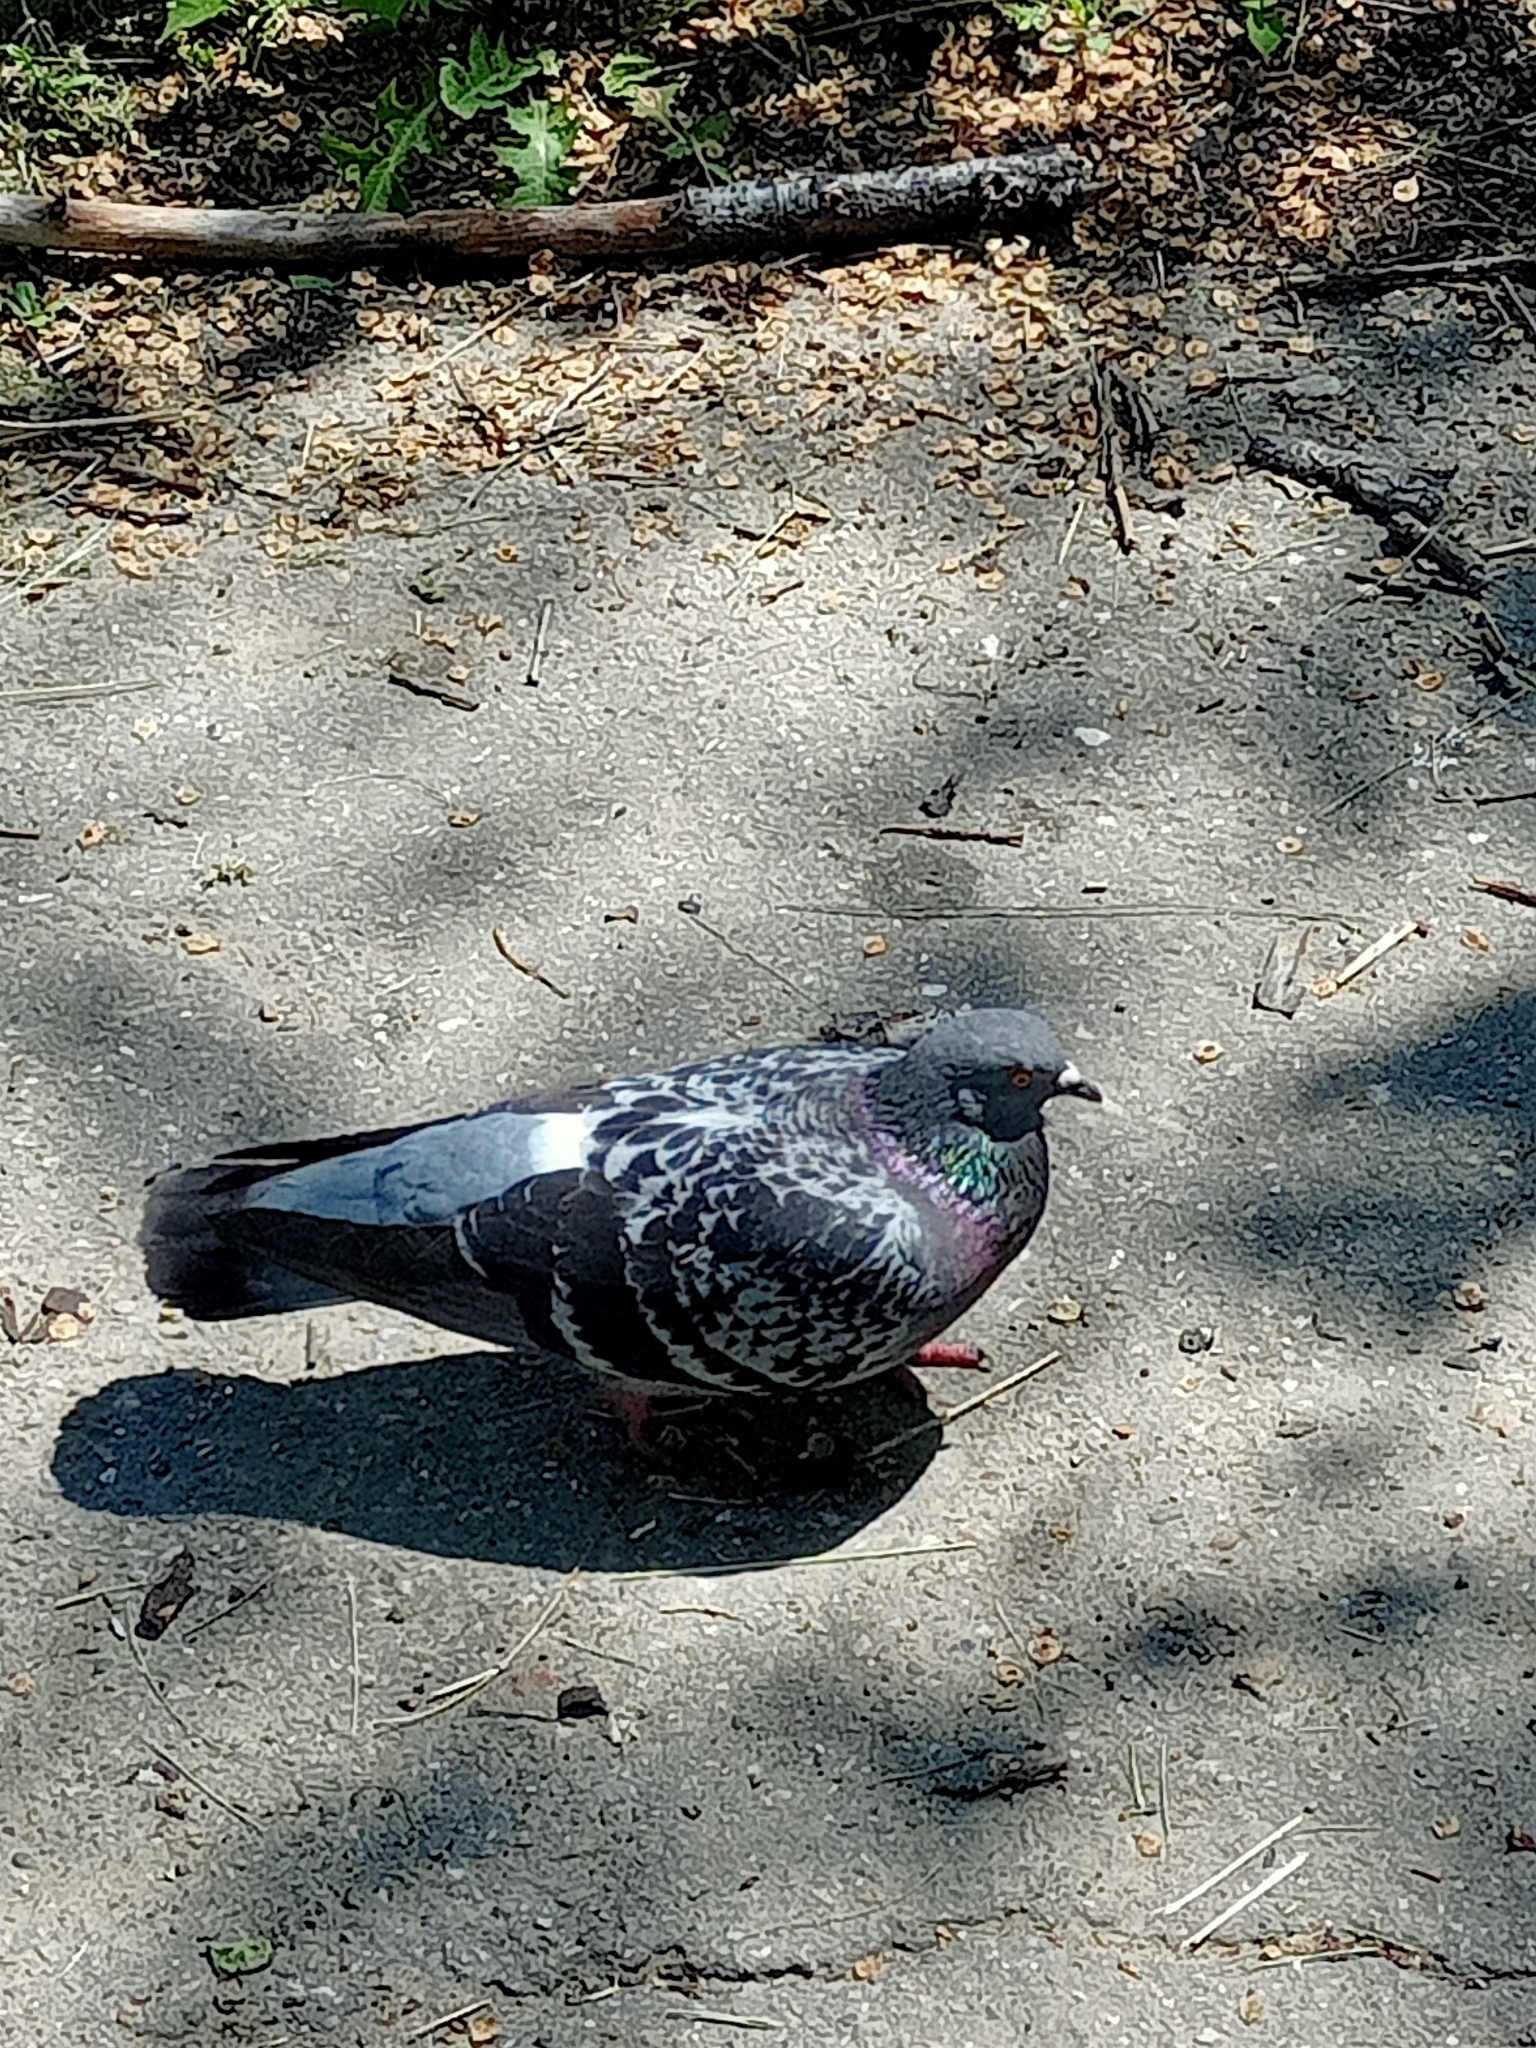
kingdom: Animalia
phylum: Chordata
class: Aves
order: Columbiformes
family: Columbidae
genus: Columba
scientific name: Columba livia
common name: Rock pigeon
